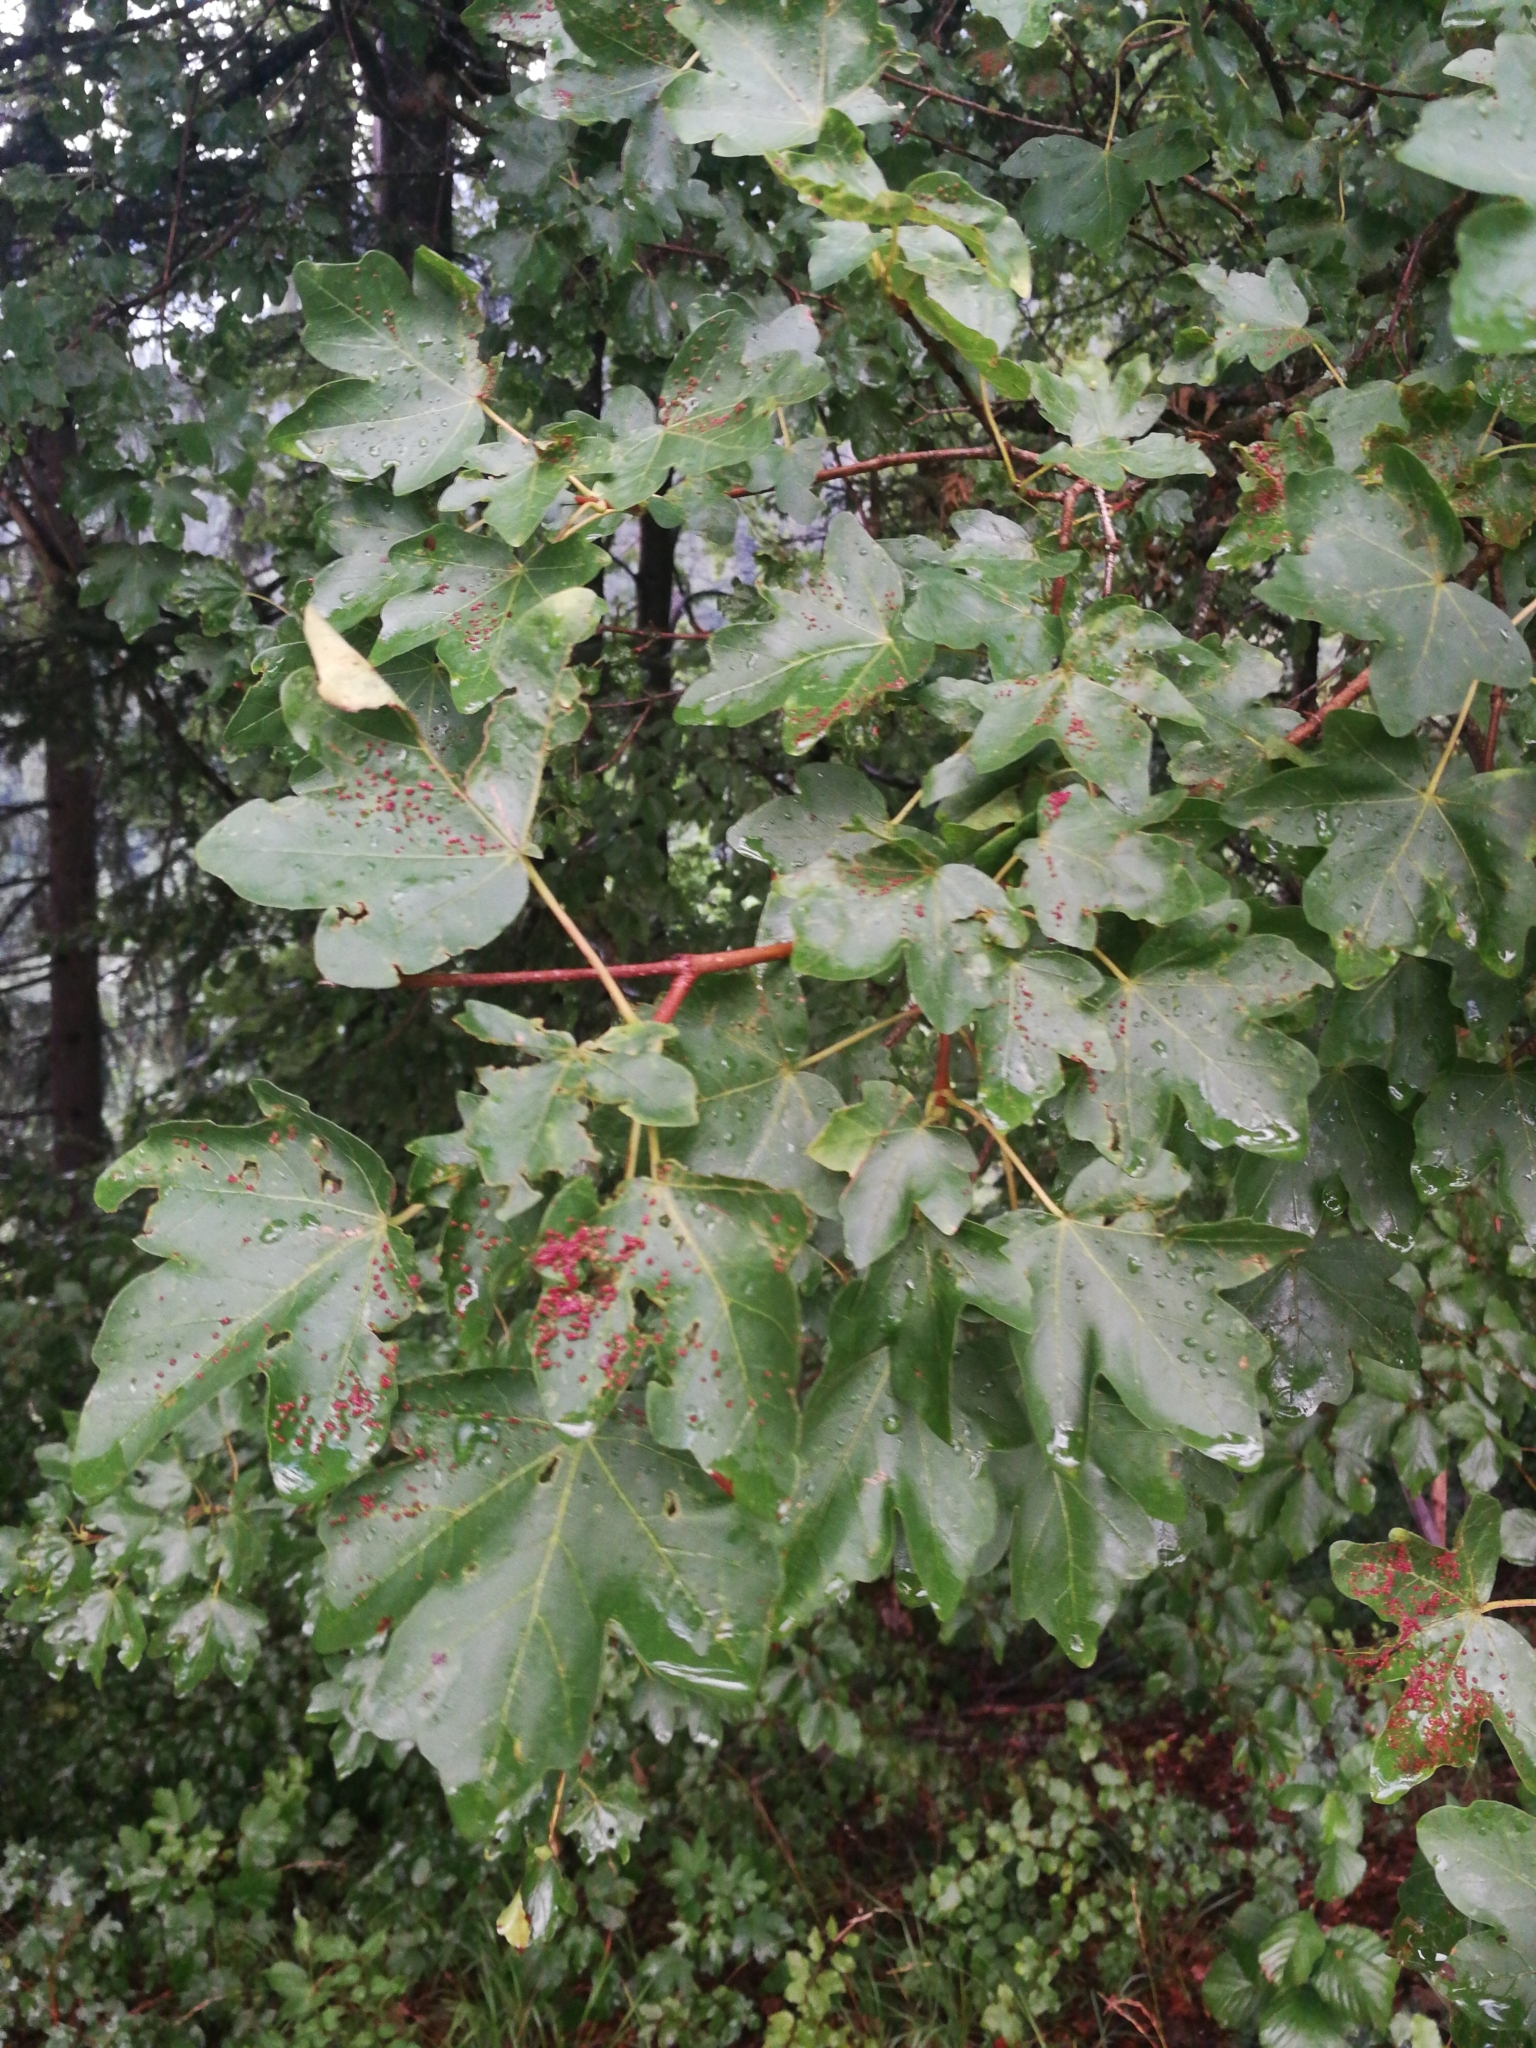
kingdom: Plantae
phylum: Tracheophyta
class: Magnoliopsida
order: Sapindales
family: Sapindaceae
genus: Acer
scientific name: Acer campestre
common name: Field maple
